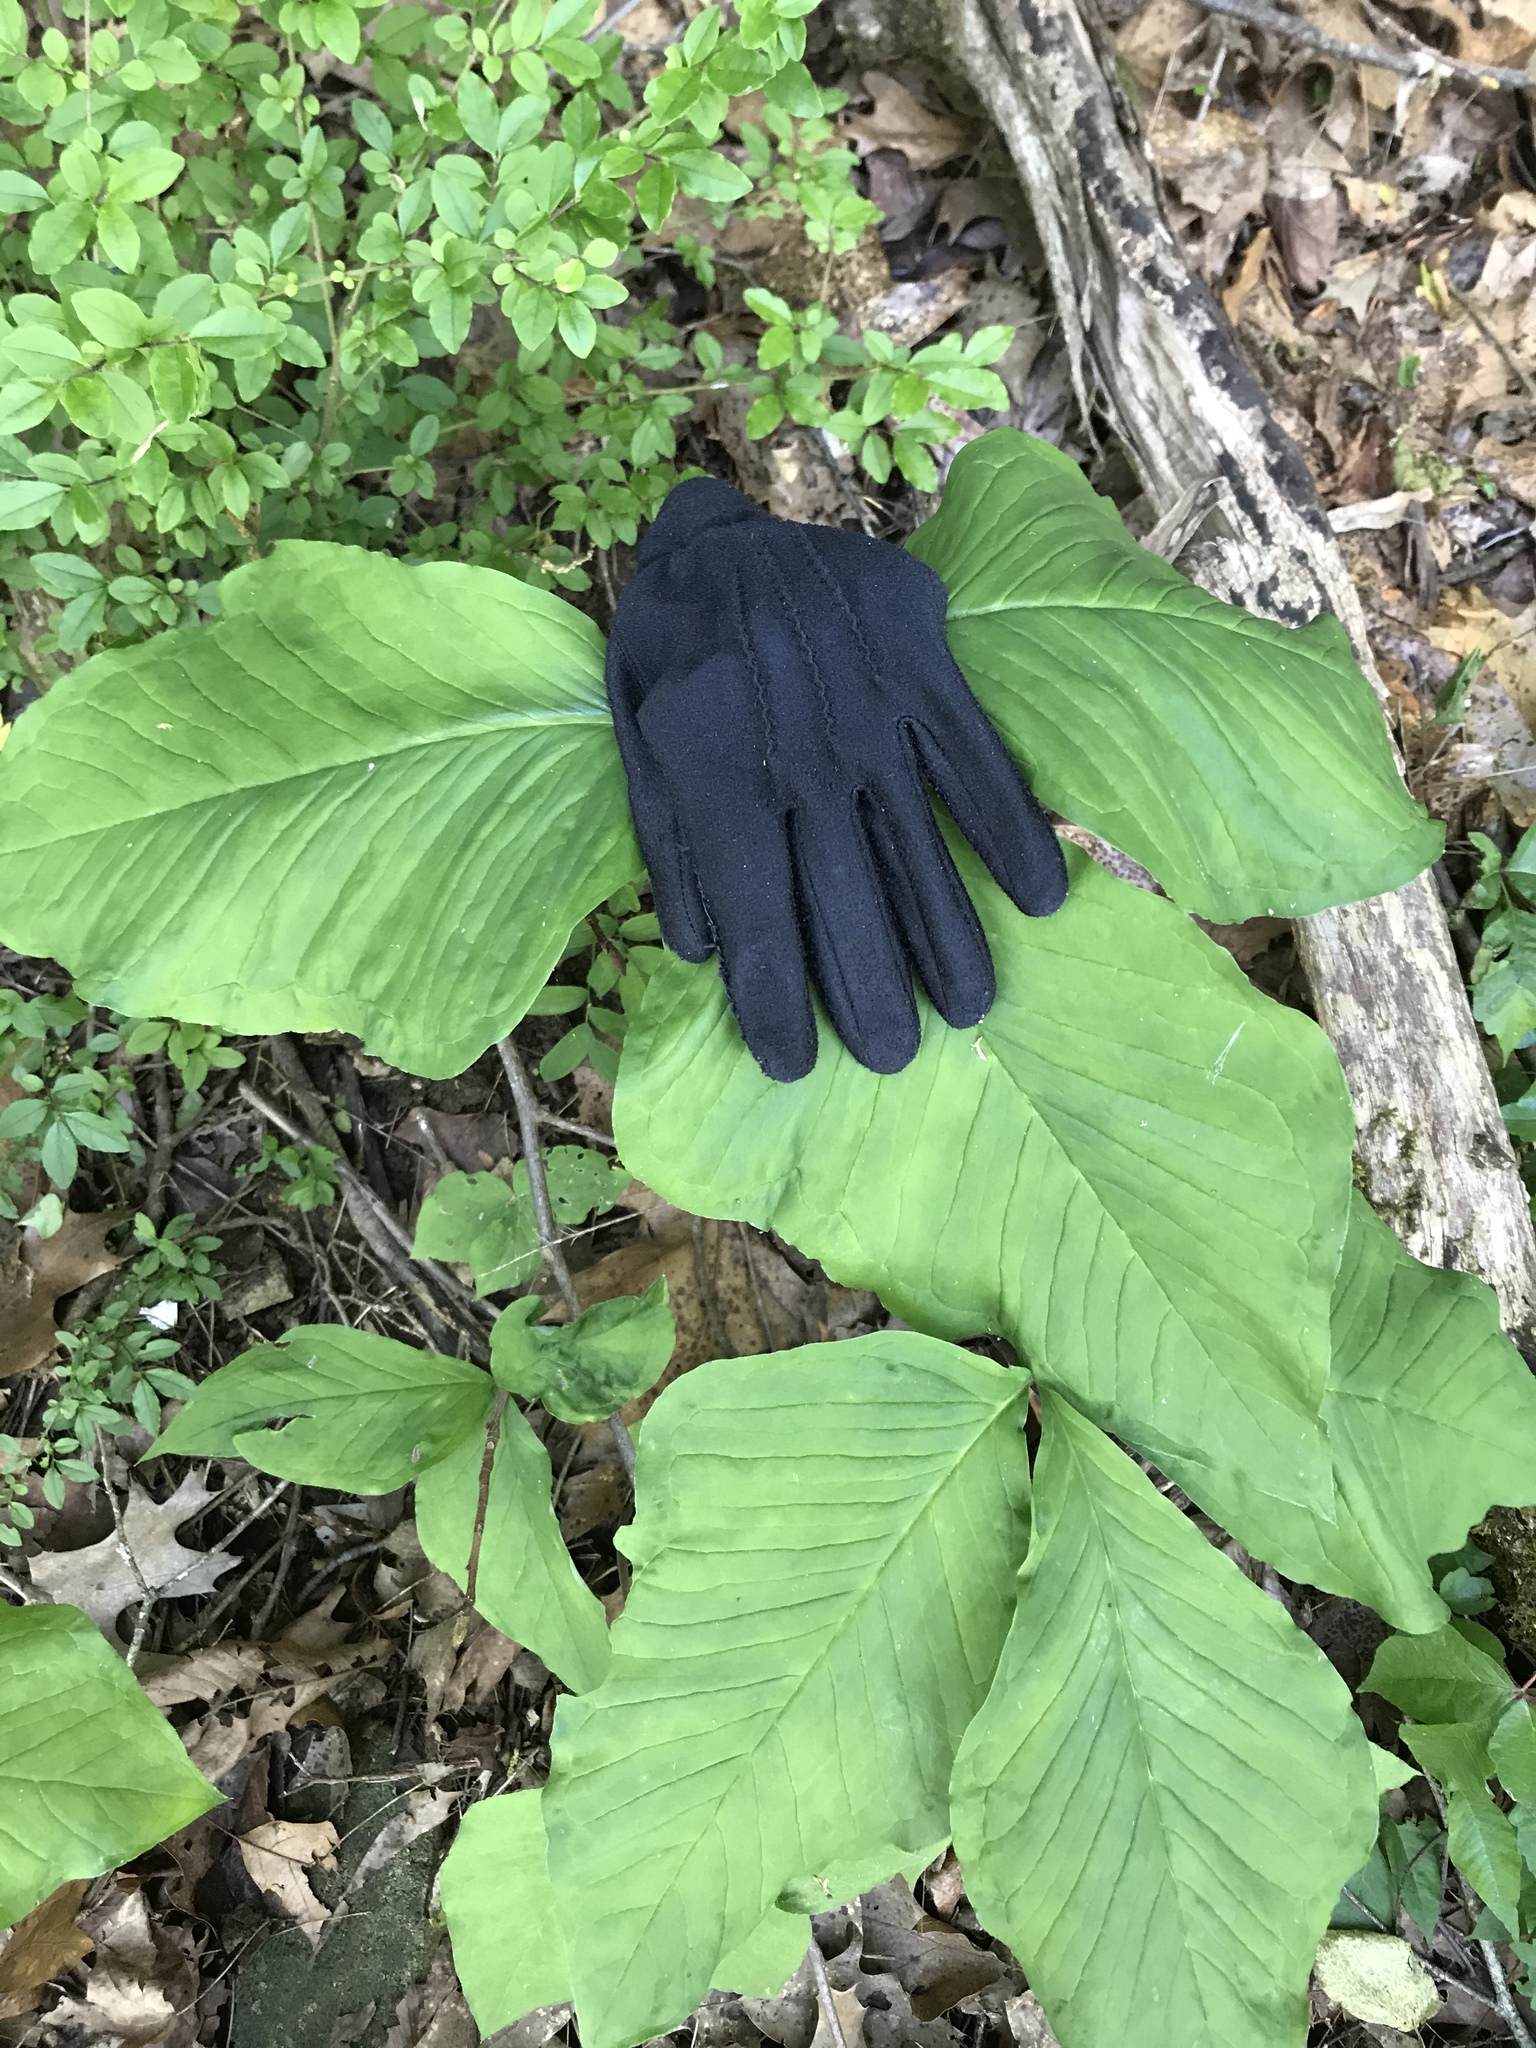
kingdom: Plantae
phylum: Tracheophyta
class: Liliopsida
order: Alismatales
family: Araceae
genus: Arisaema
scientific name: Arisaema triphyllum
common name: Jack-in-the-pulpit
